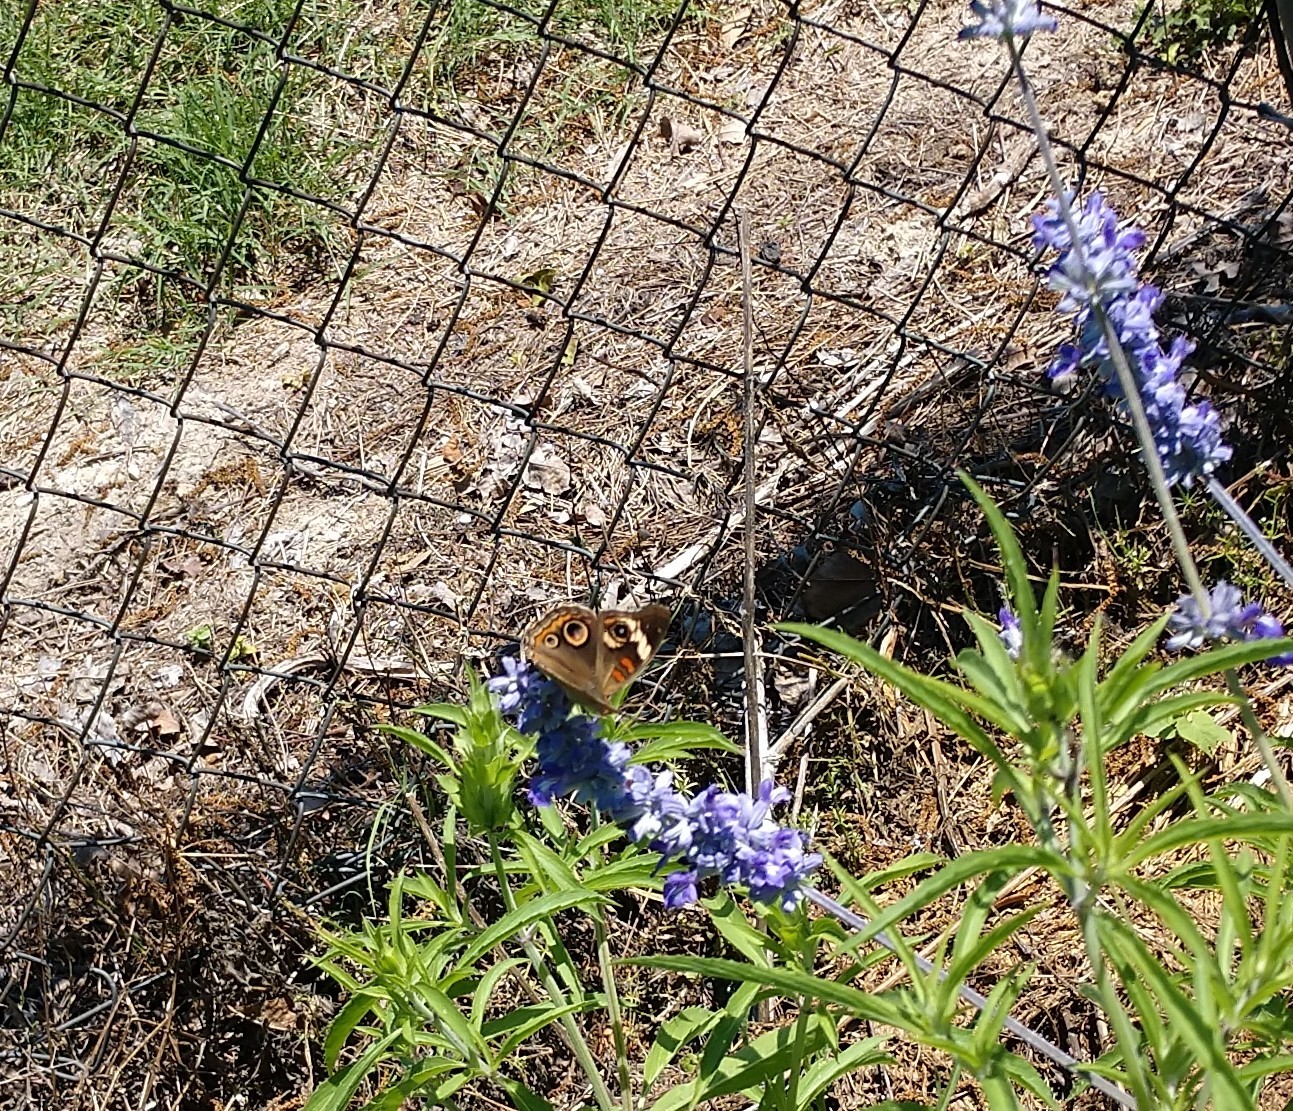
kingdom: Animalia
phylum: Arthropoda
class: Insecta
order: Lepidoptera
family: Nymphalidae
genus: Junonia
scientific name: Junonia coenia
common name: Common buckeye
